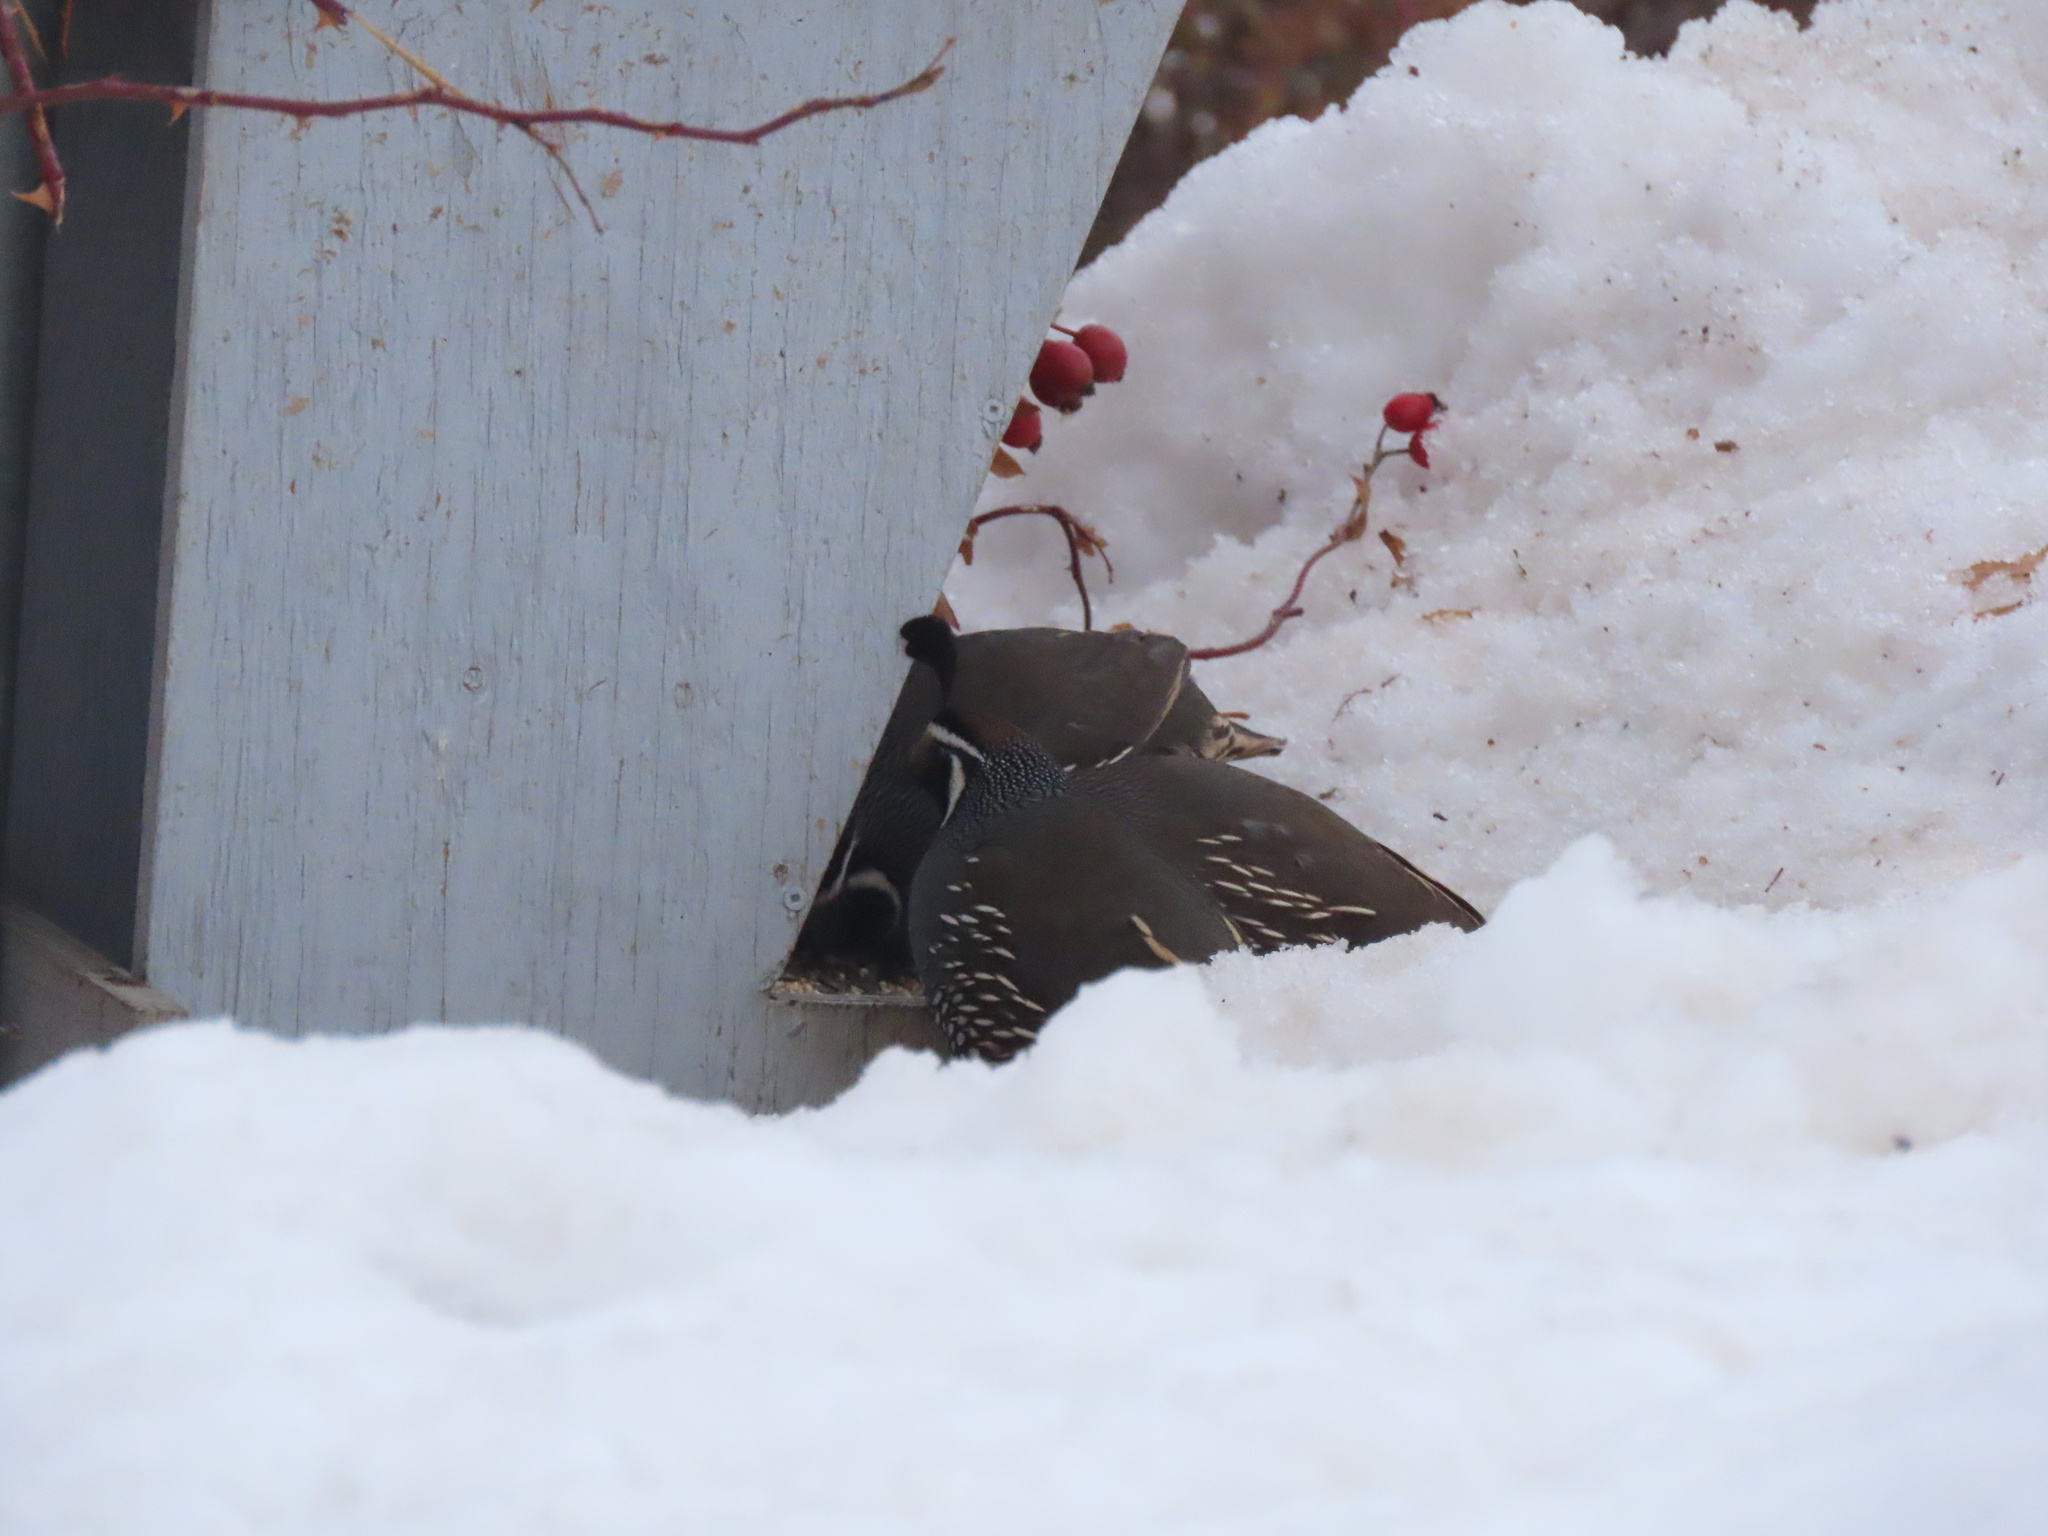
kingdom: Animalia
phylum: Chordata
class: Aves
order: Galliformes
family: Odontophoridae
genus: Callipepla
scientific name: Callipepla californica
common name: California quail
